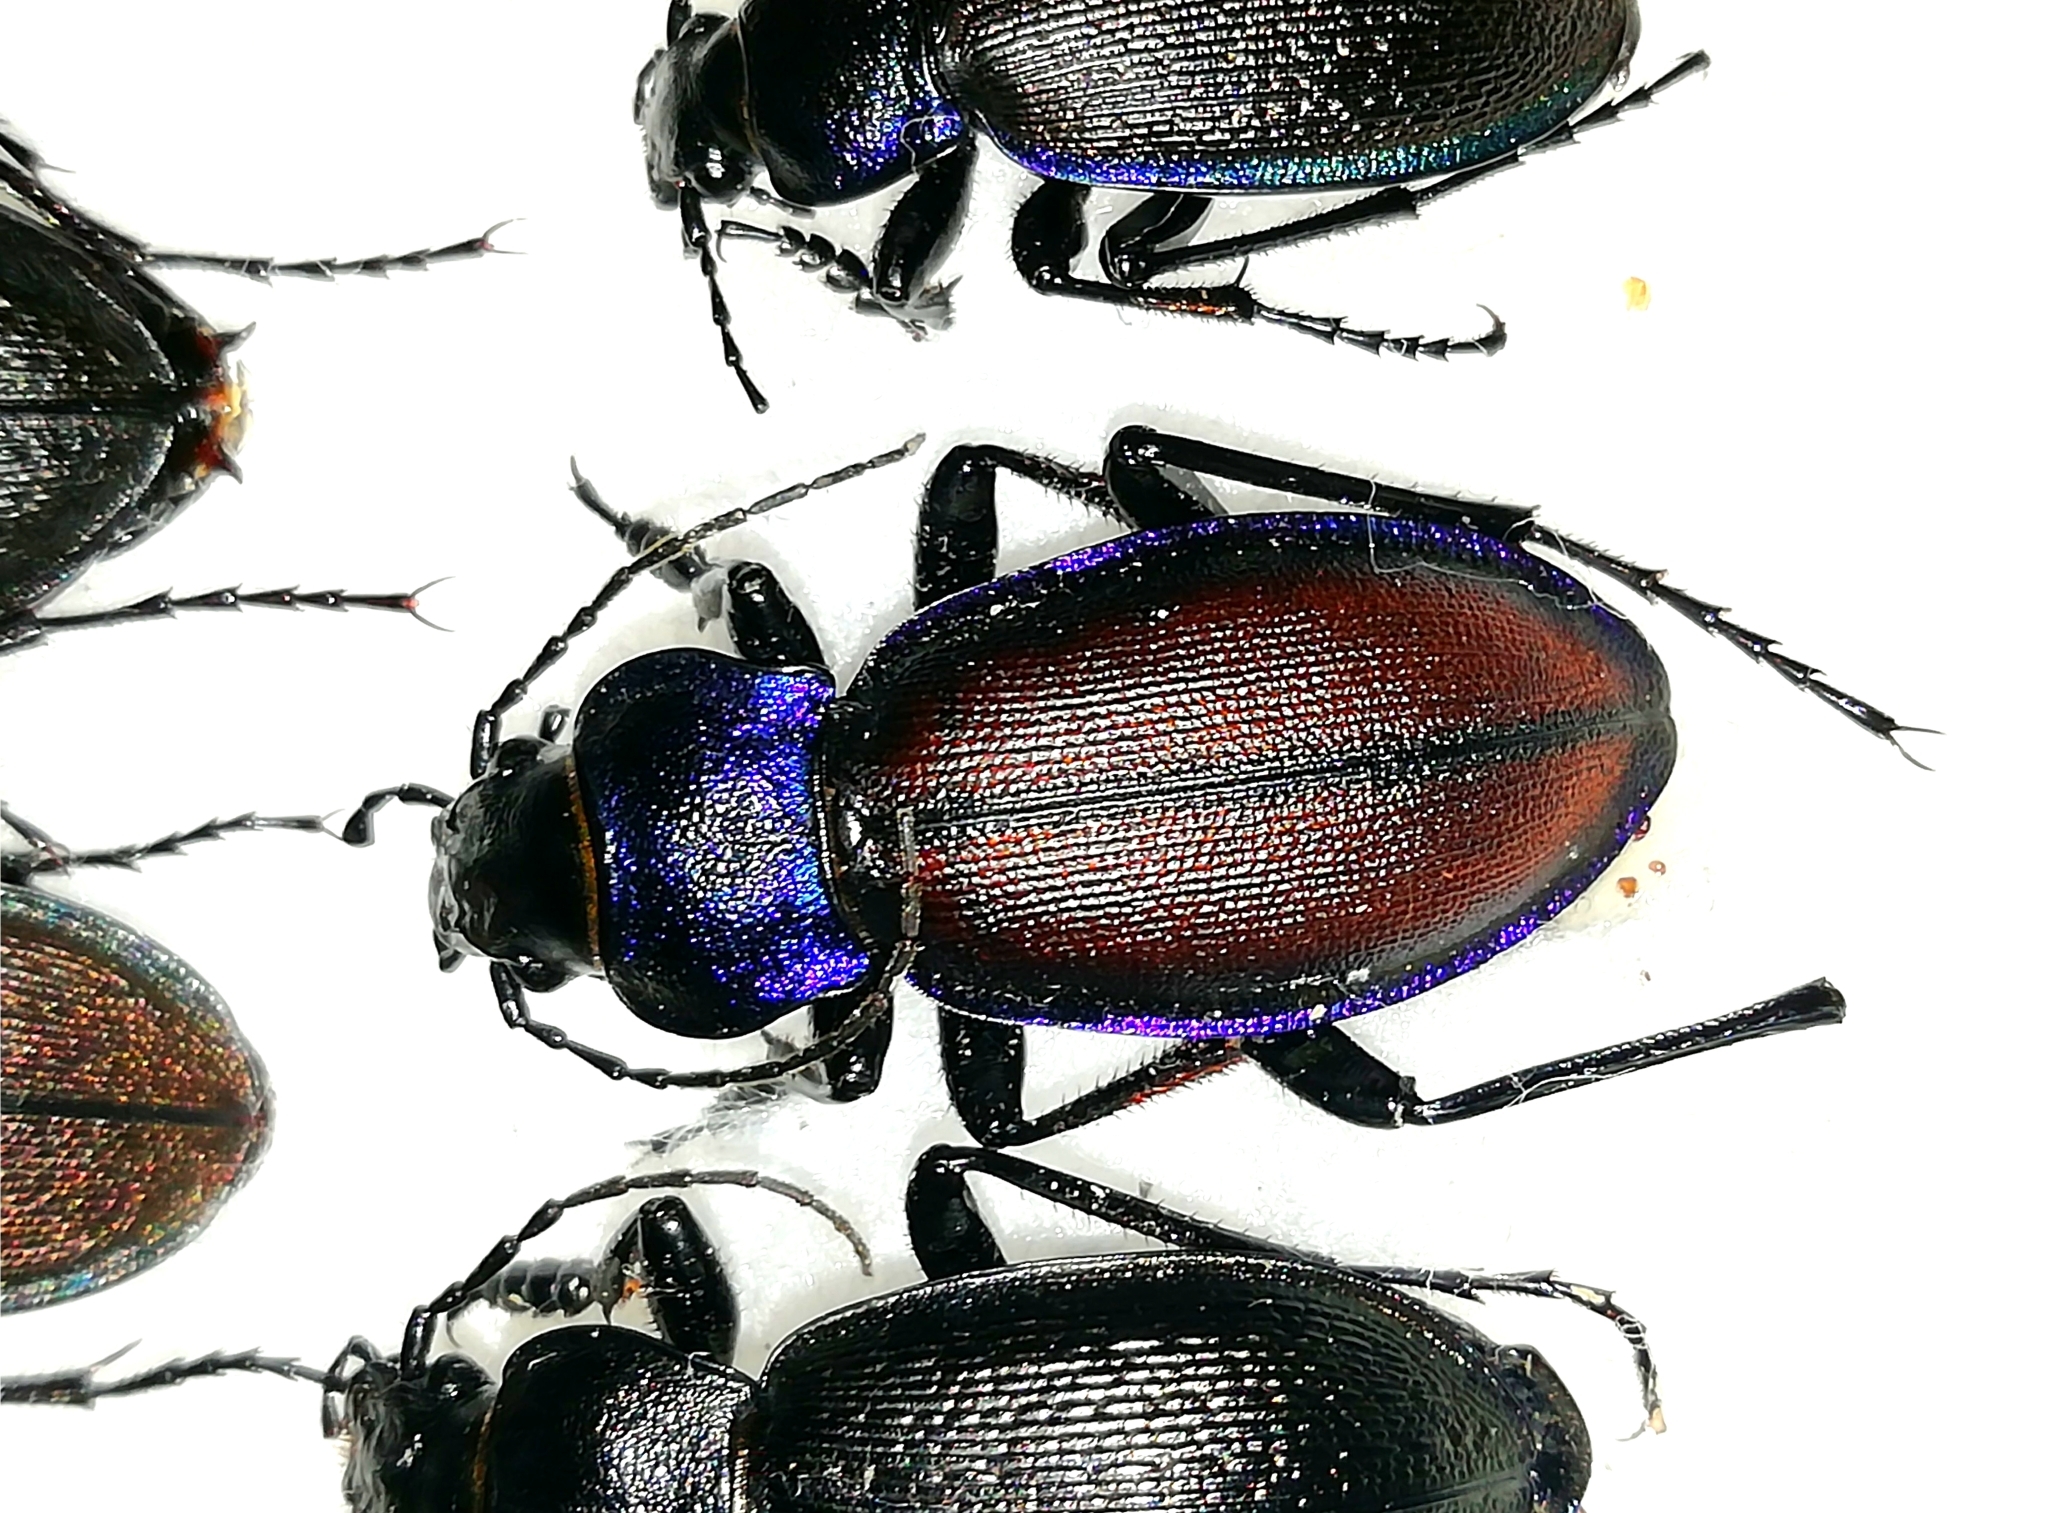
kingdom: Animalia
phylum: Arthropoda
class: Insecta
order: Coleoptera
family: Carabidae
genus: Carabus
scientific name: Carabus schoenherri
